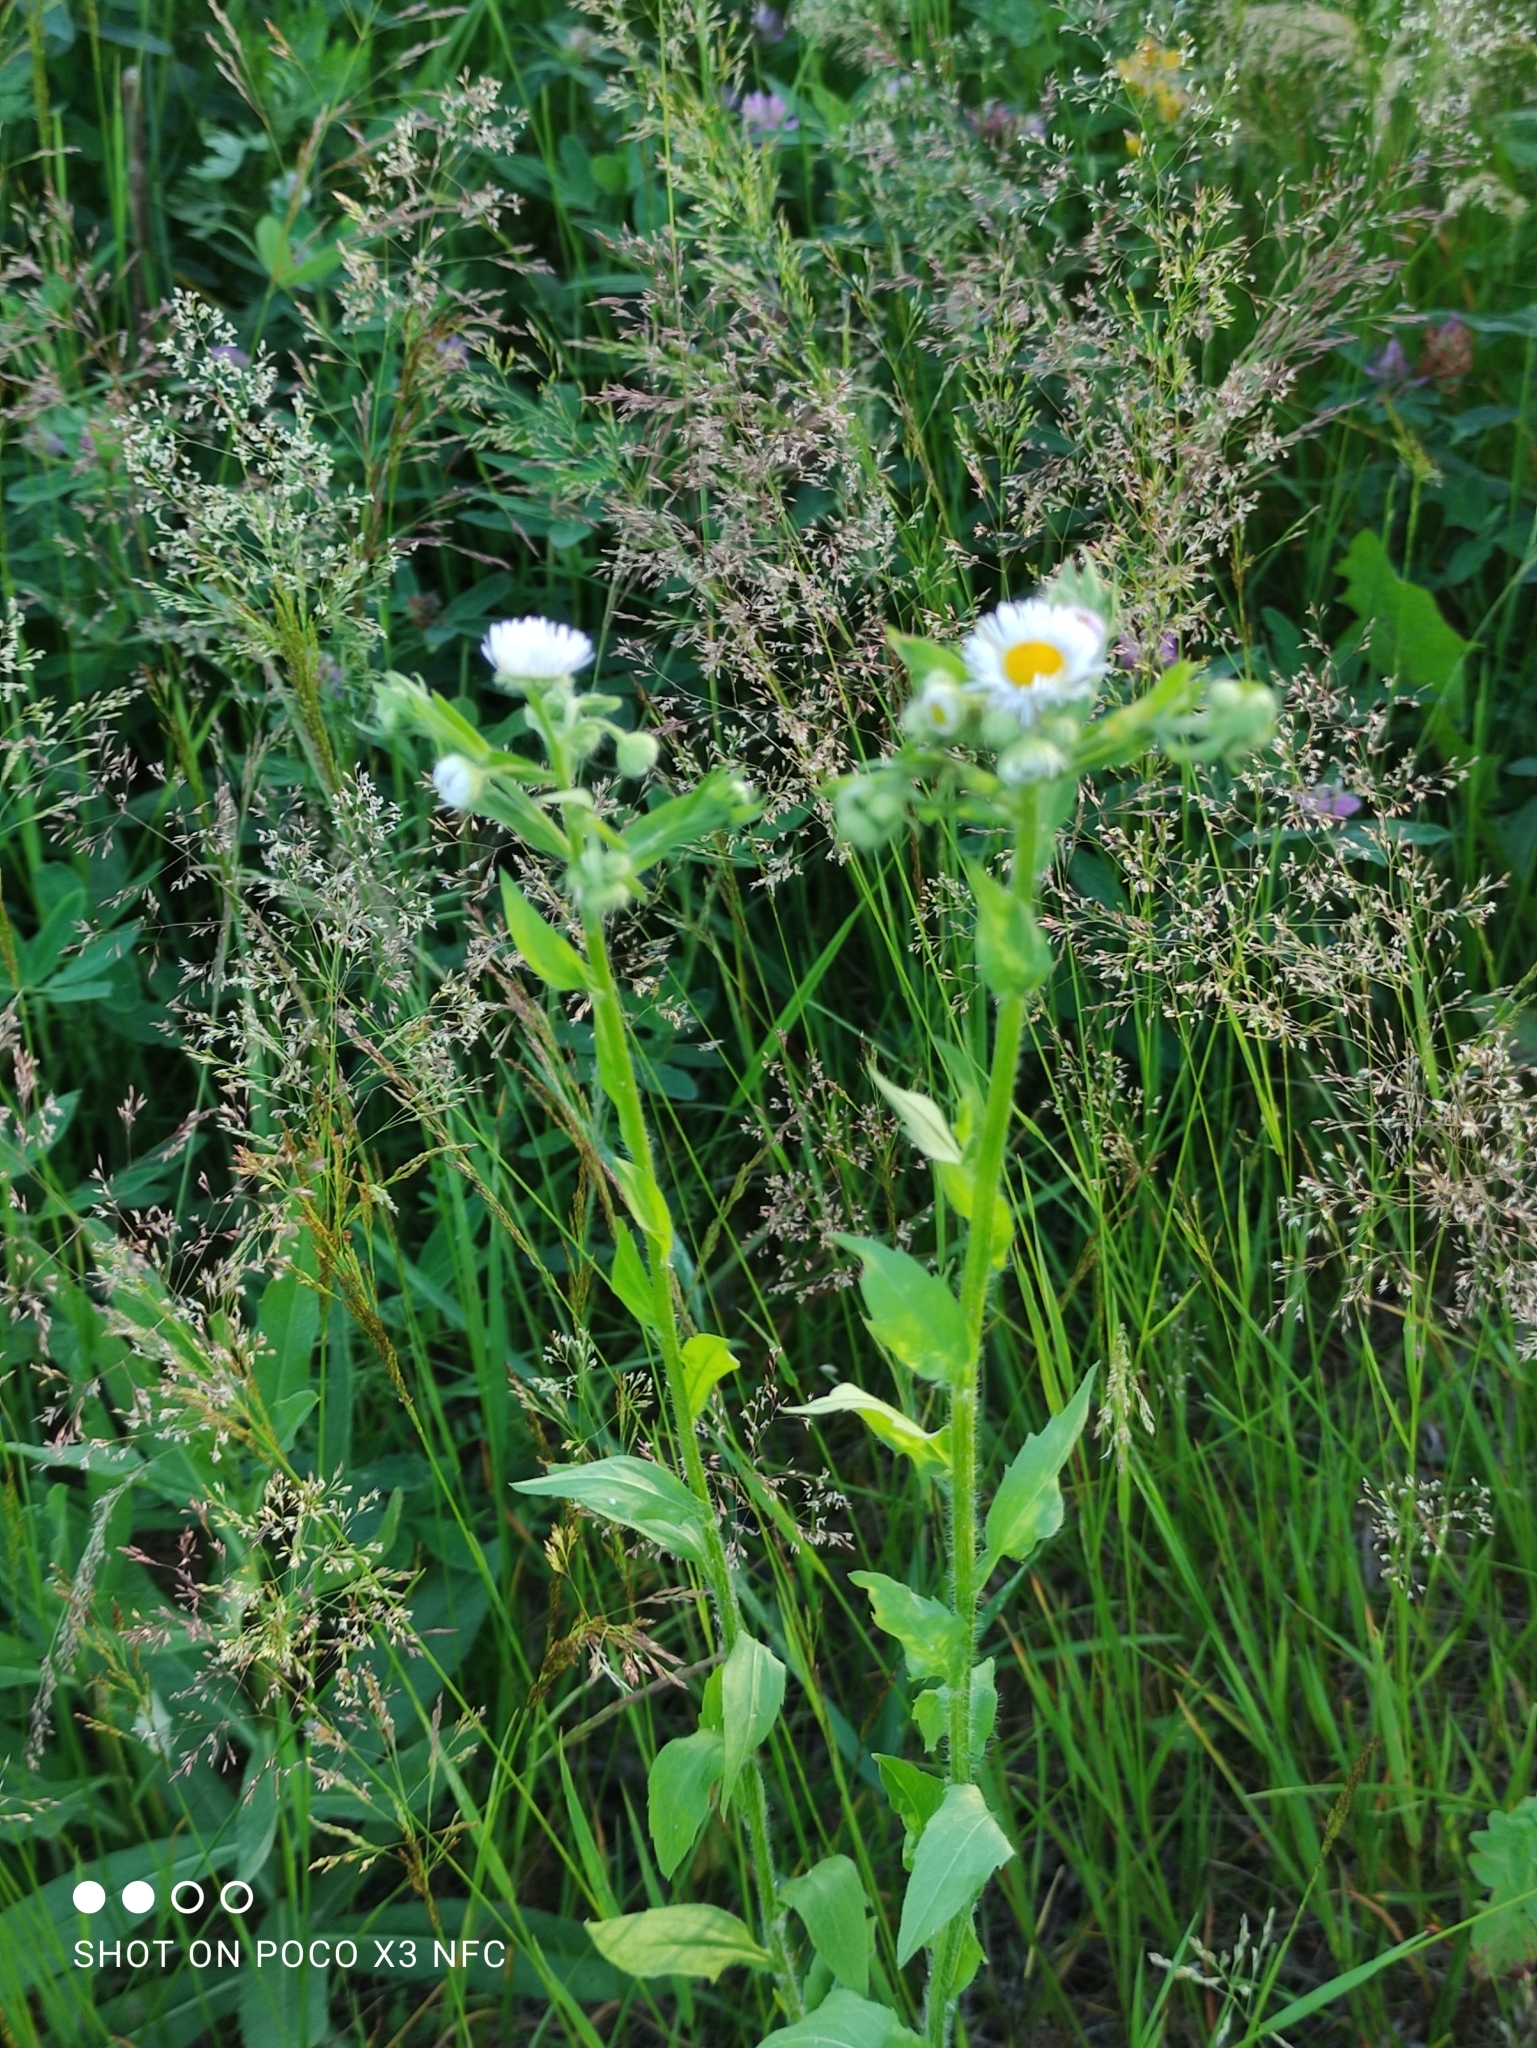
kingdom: Plantae
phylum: Tracheophyta
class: Magnoliopsida
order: Asterales
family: Asteraceae
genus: Erigeron
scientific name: Erigeron annuus
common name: Tall fleabane
